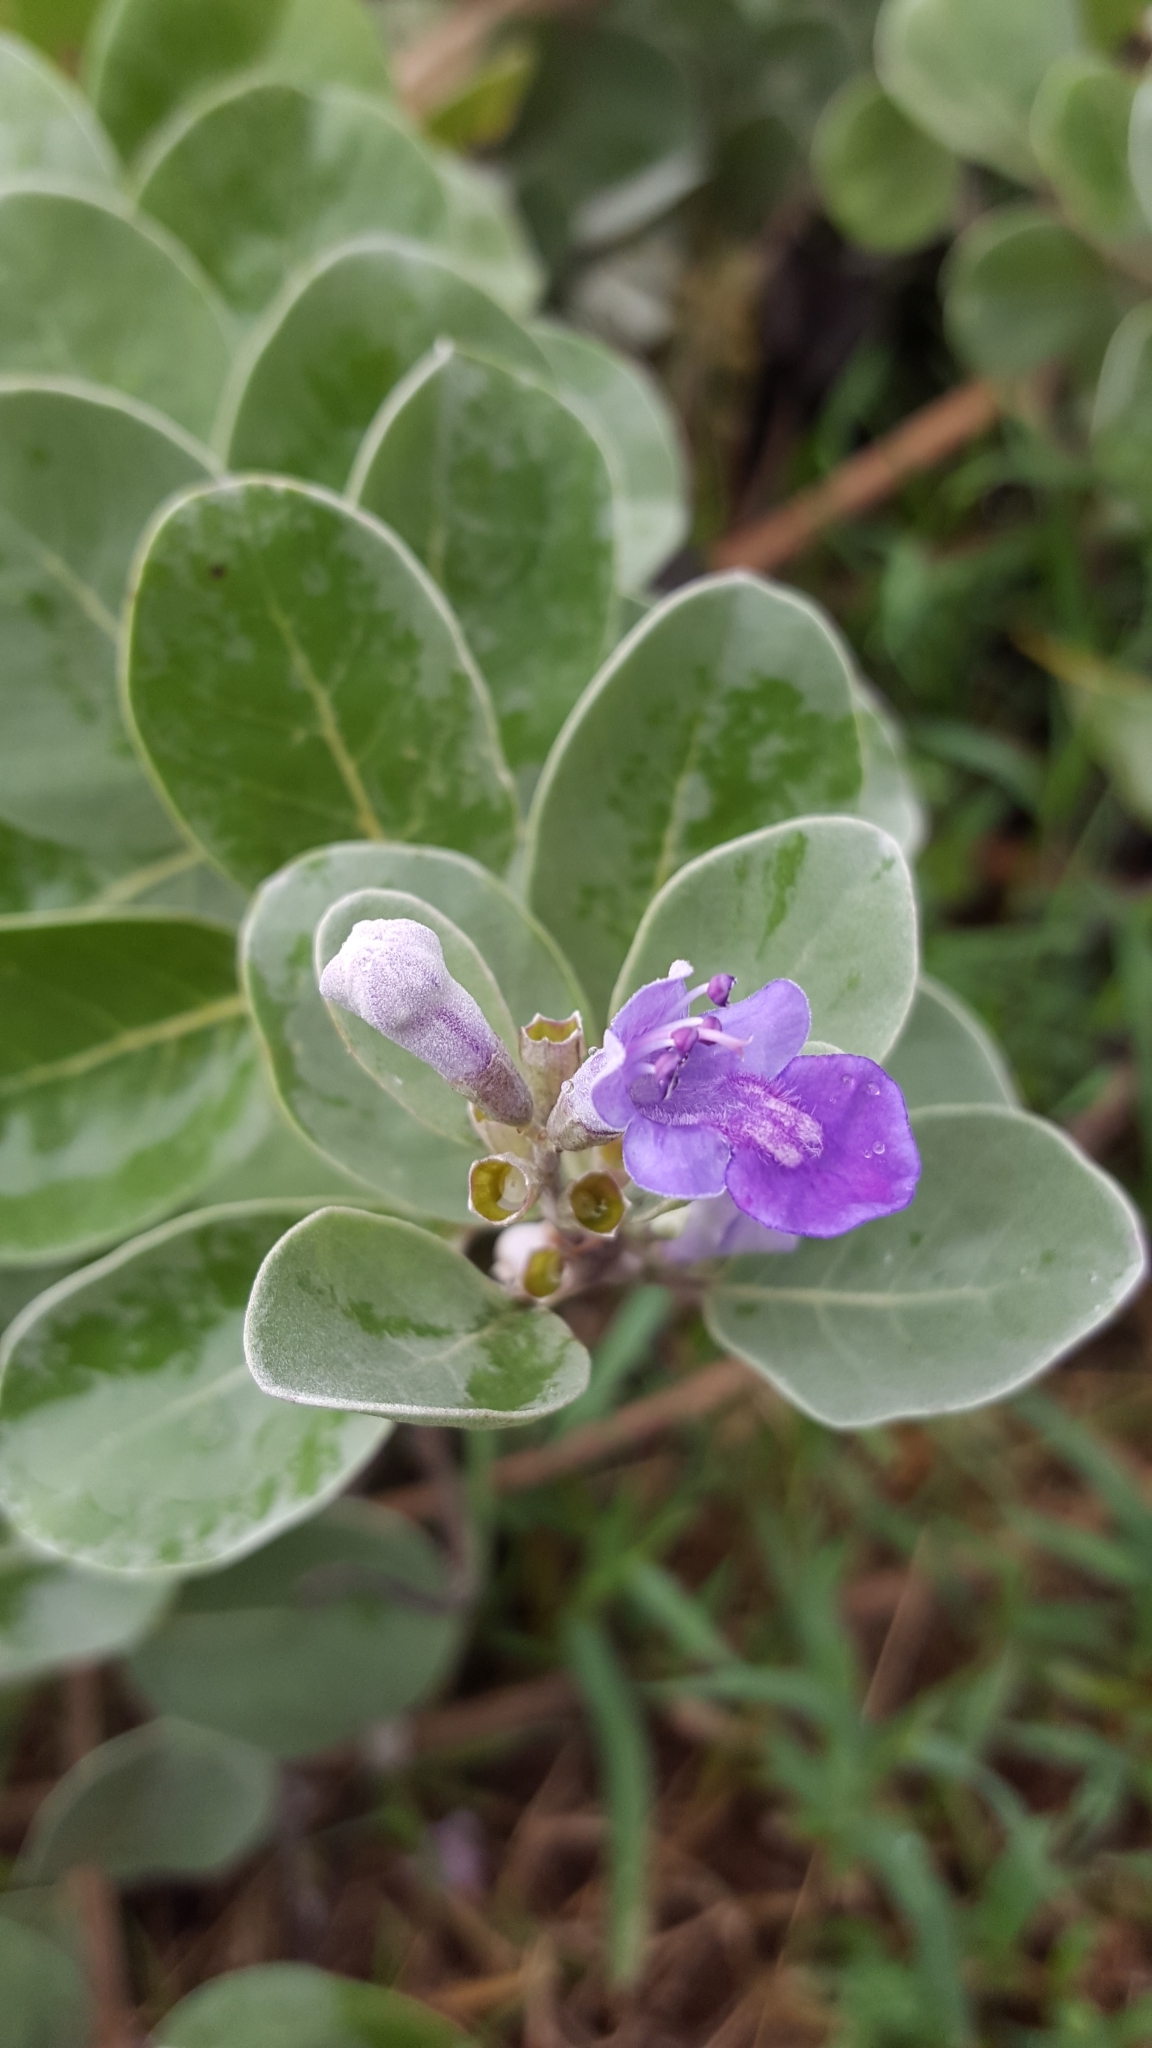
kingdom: Plantae
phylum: Tracheophyta
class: Magnoliopsida
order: Lamiales
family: Lamiaceae
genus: Vitex
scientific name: Vitex rotundifolia
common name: Beach vitex
